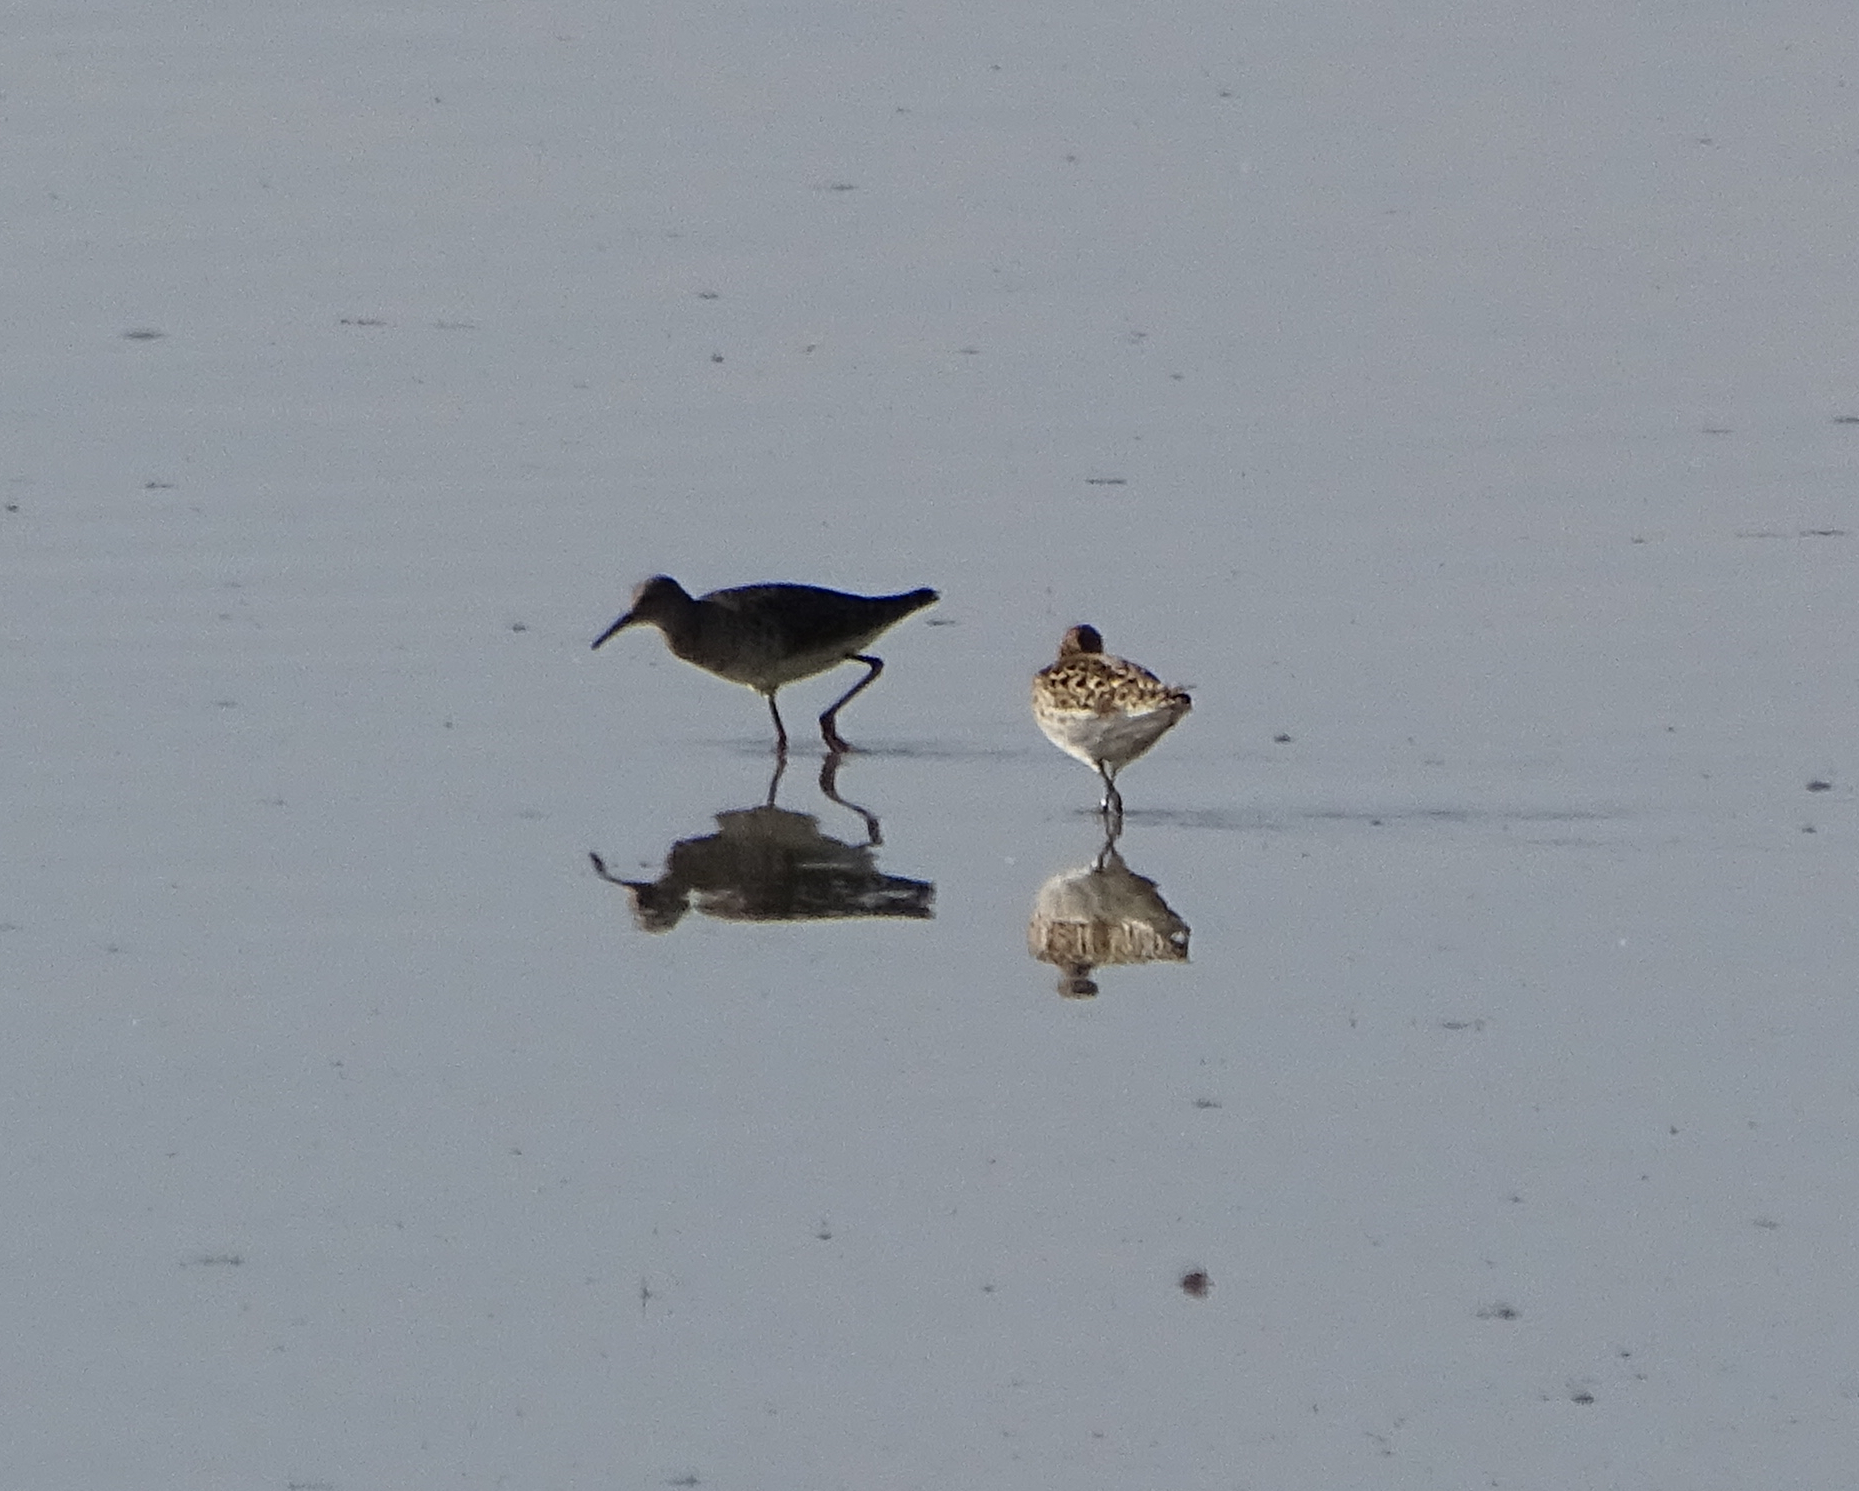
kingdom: Animalia
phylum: Chordata
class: Aves
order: Charadriiformes
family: Scolopacidae
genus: Calidris
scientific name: Calidris pugnax
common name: Ruff
